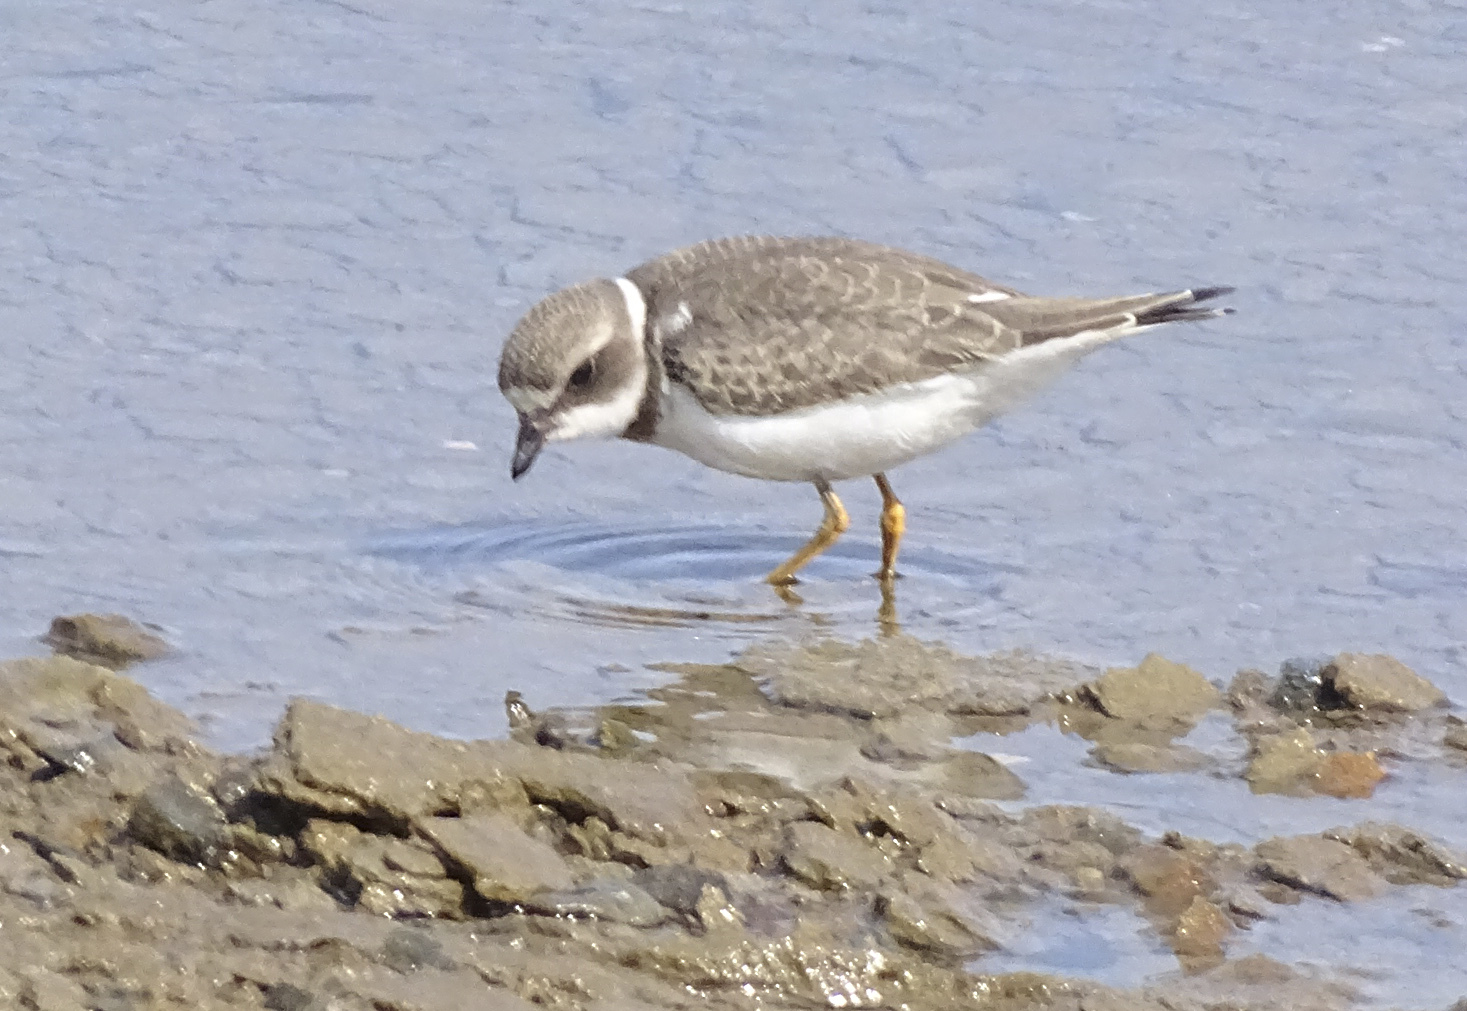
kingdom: Animalia
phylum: Chordata
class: Aves
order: Charadriiformes
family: Charadriidae
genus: Charadrius
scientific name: Charadrius semipalmatus
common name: Semipalmated plover
